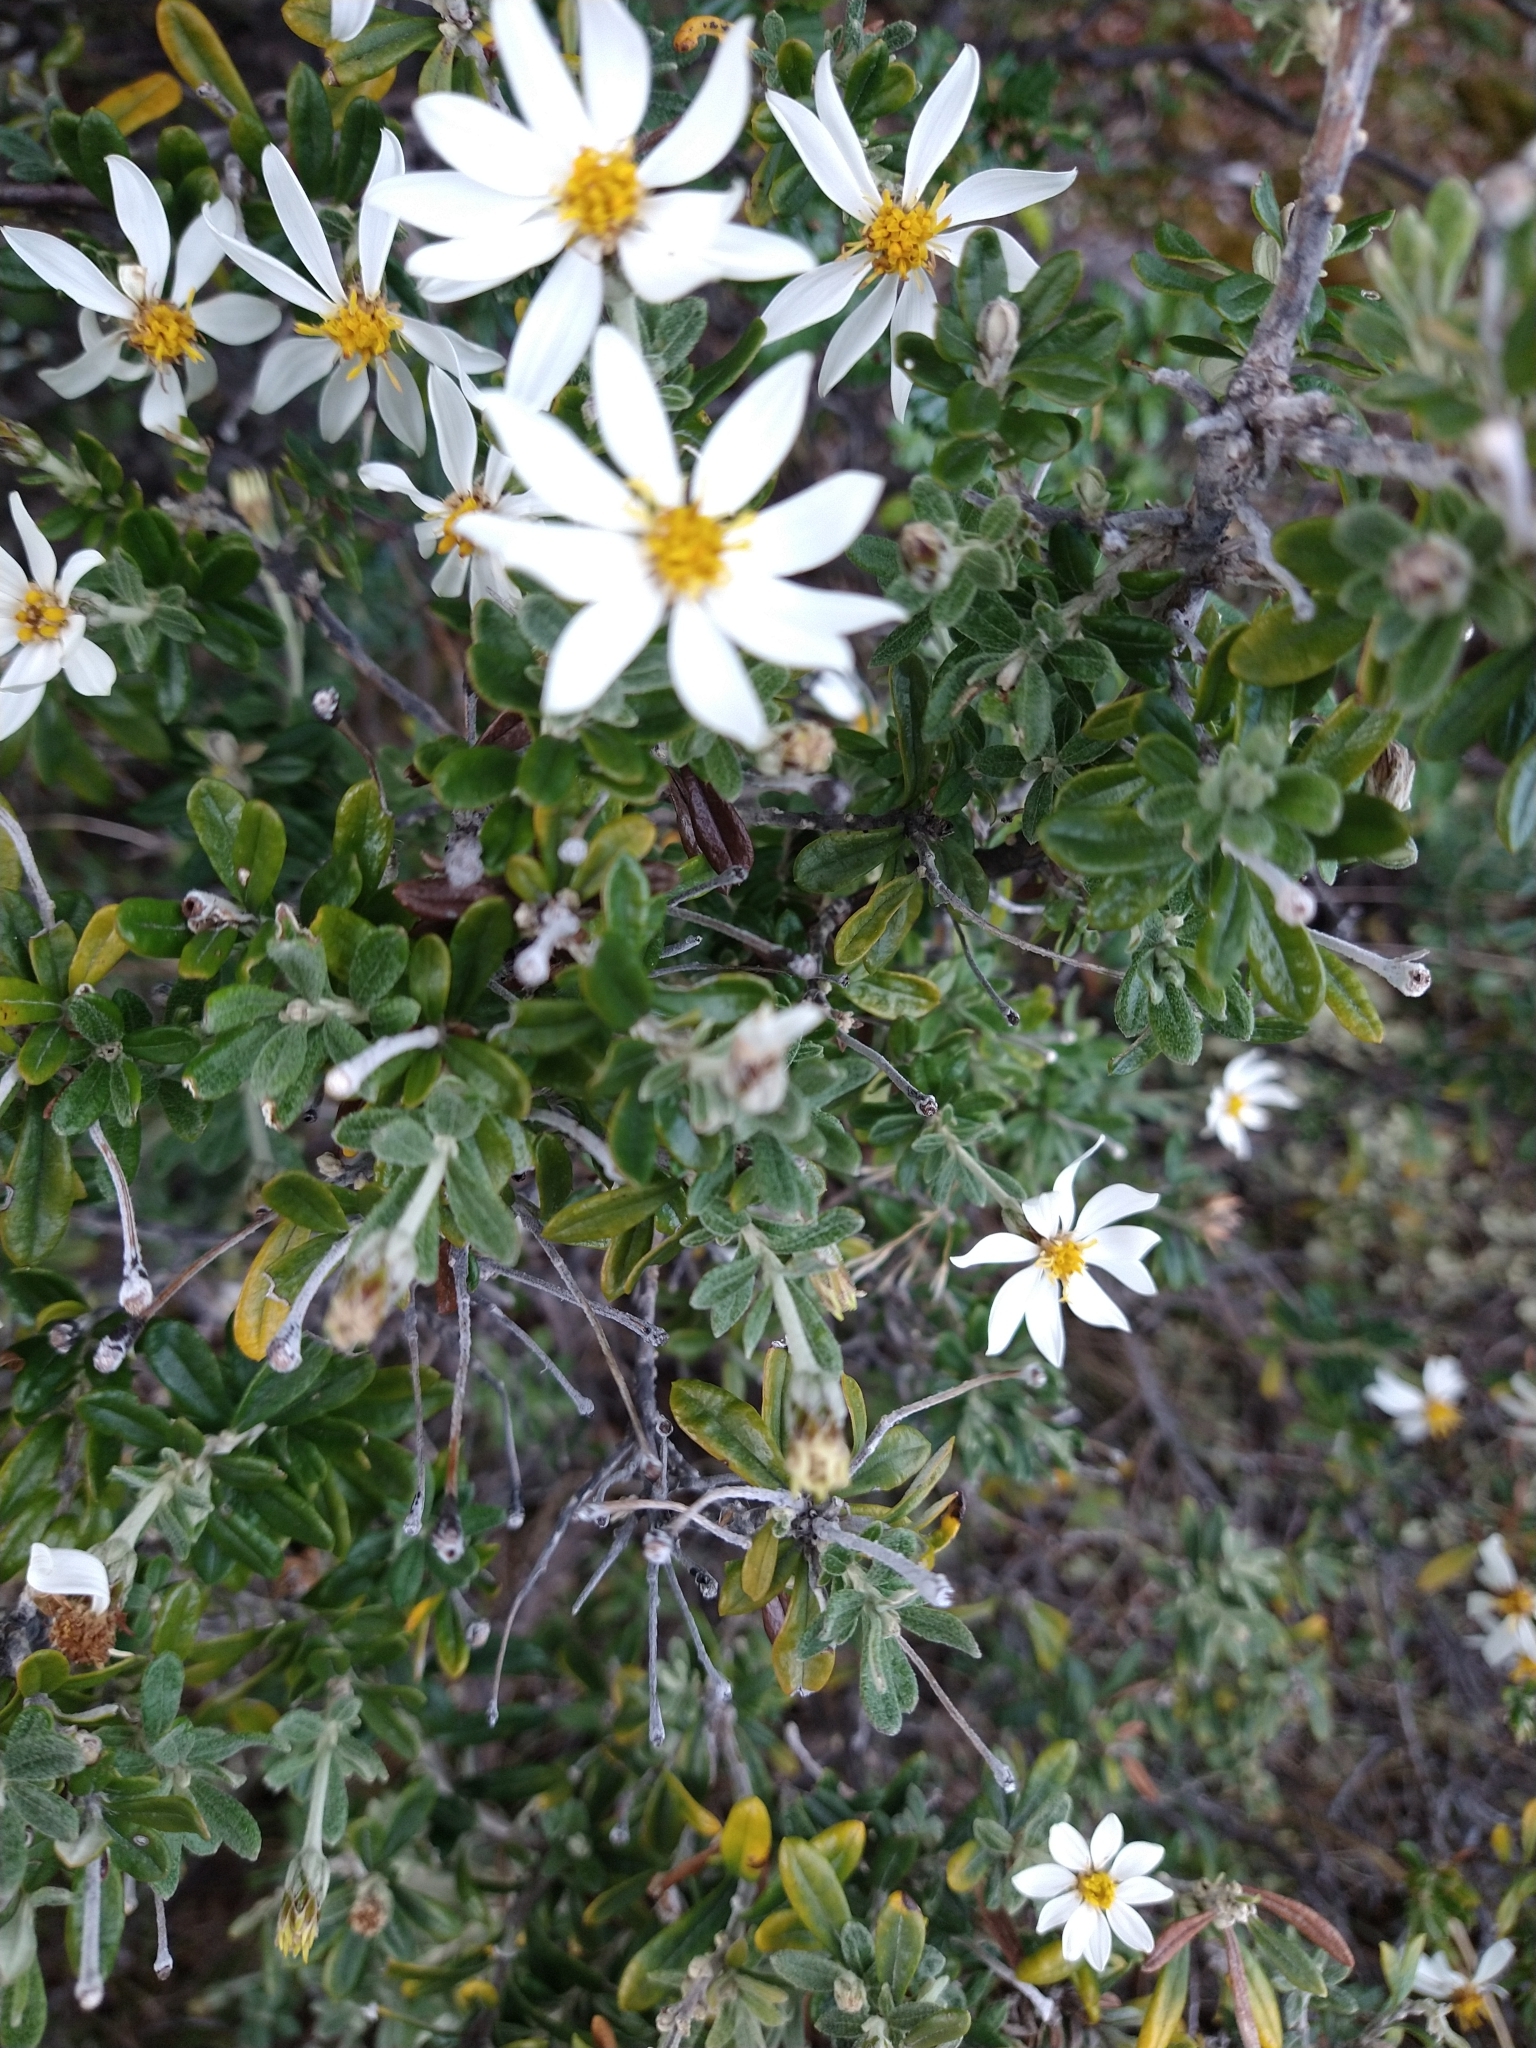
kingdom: Plantae
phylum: Tracheophyta
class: Magnoliopsida
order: Asterales
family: Asteraceae
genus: Chiliotrichum
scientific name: Chiliotrichum diffusum
